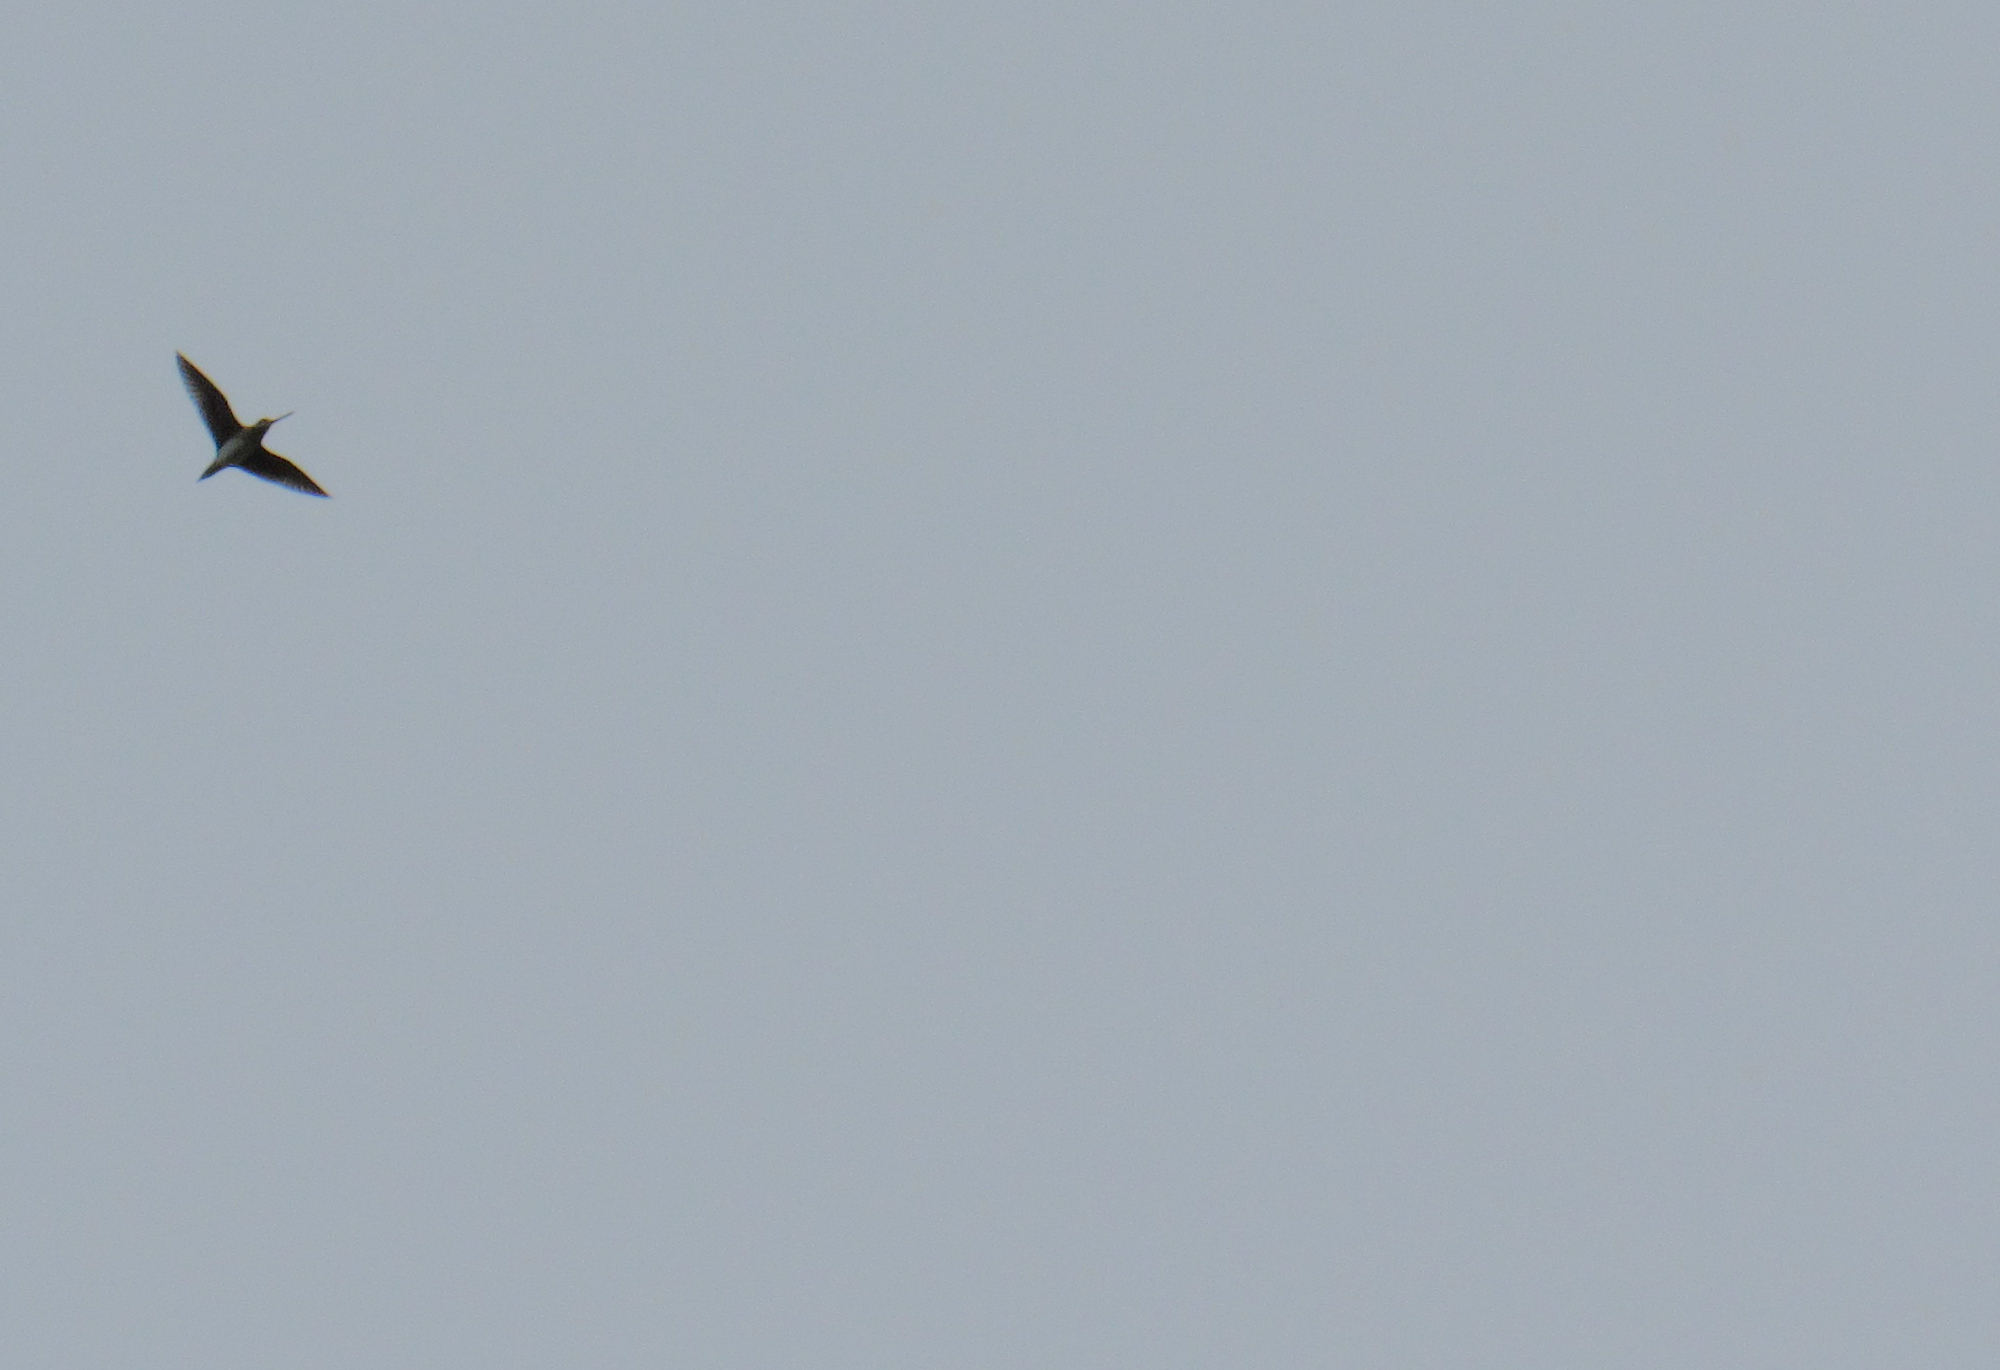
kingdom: Animalia
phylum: Chordata
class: Aves
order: Charadriiformes
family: Scolopacidae
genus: Gallinago
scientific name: Gallinago delicata
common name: Wilson's snipe
